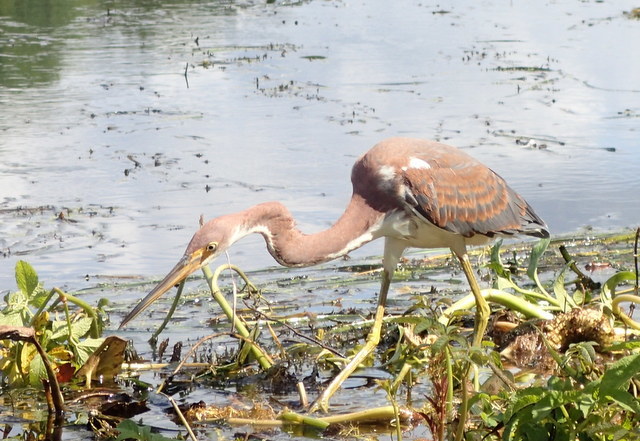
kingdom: Animalia
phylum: Chordata
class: Aves
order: Pelecaniformes
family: Ardeidae
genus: Egretta
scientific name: Egretta tricolor
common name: Tricolored heron
